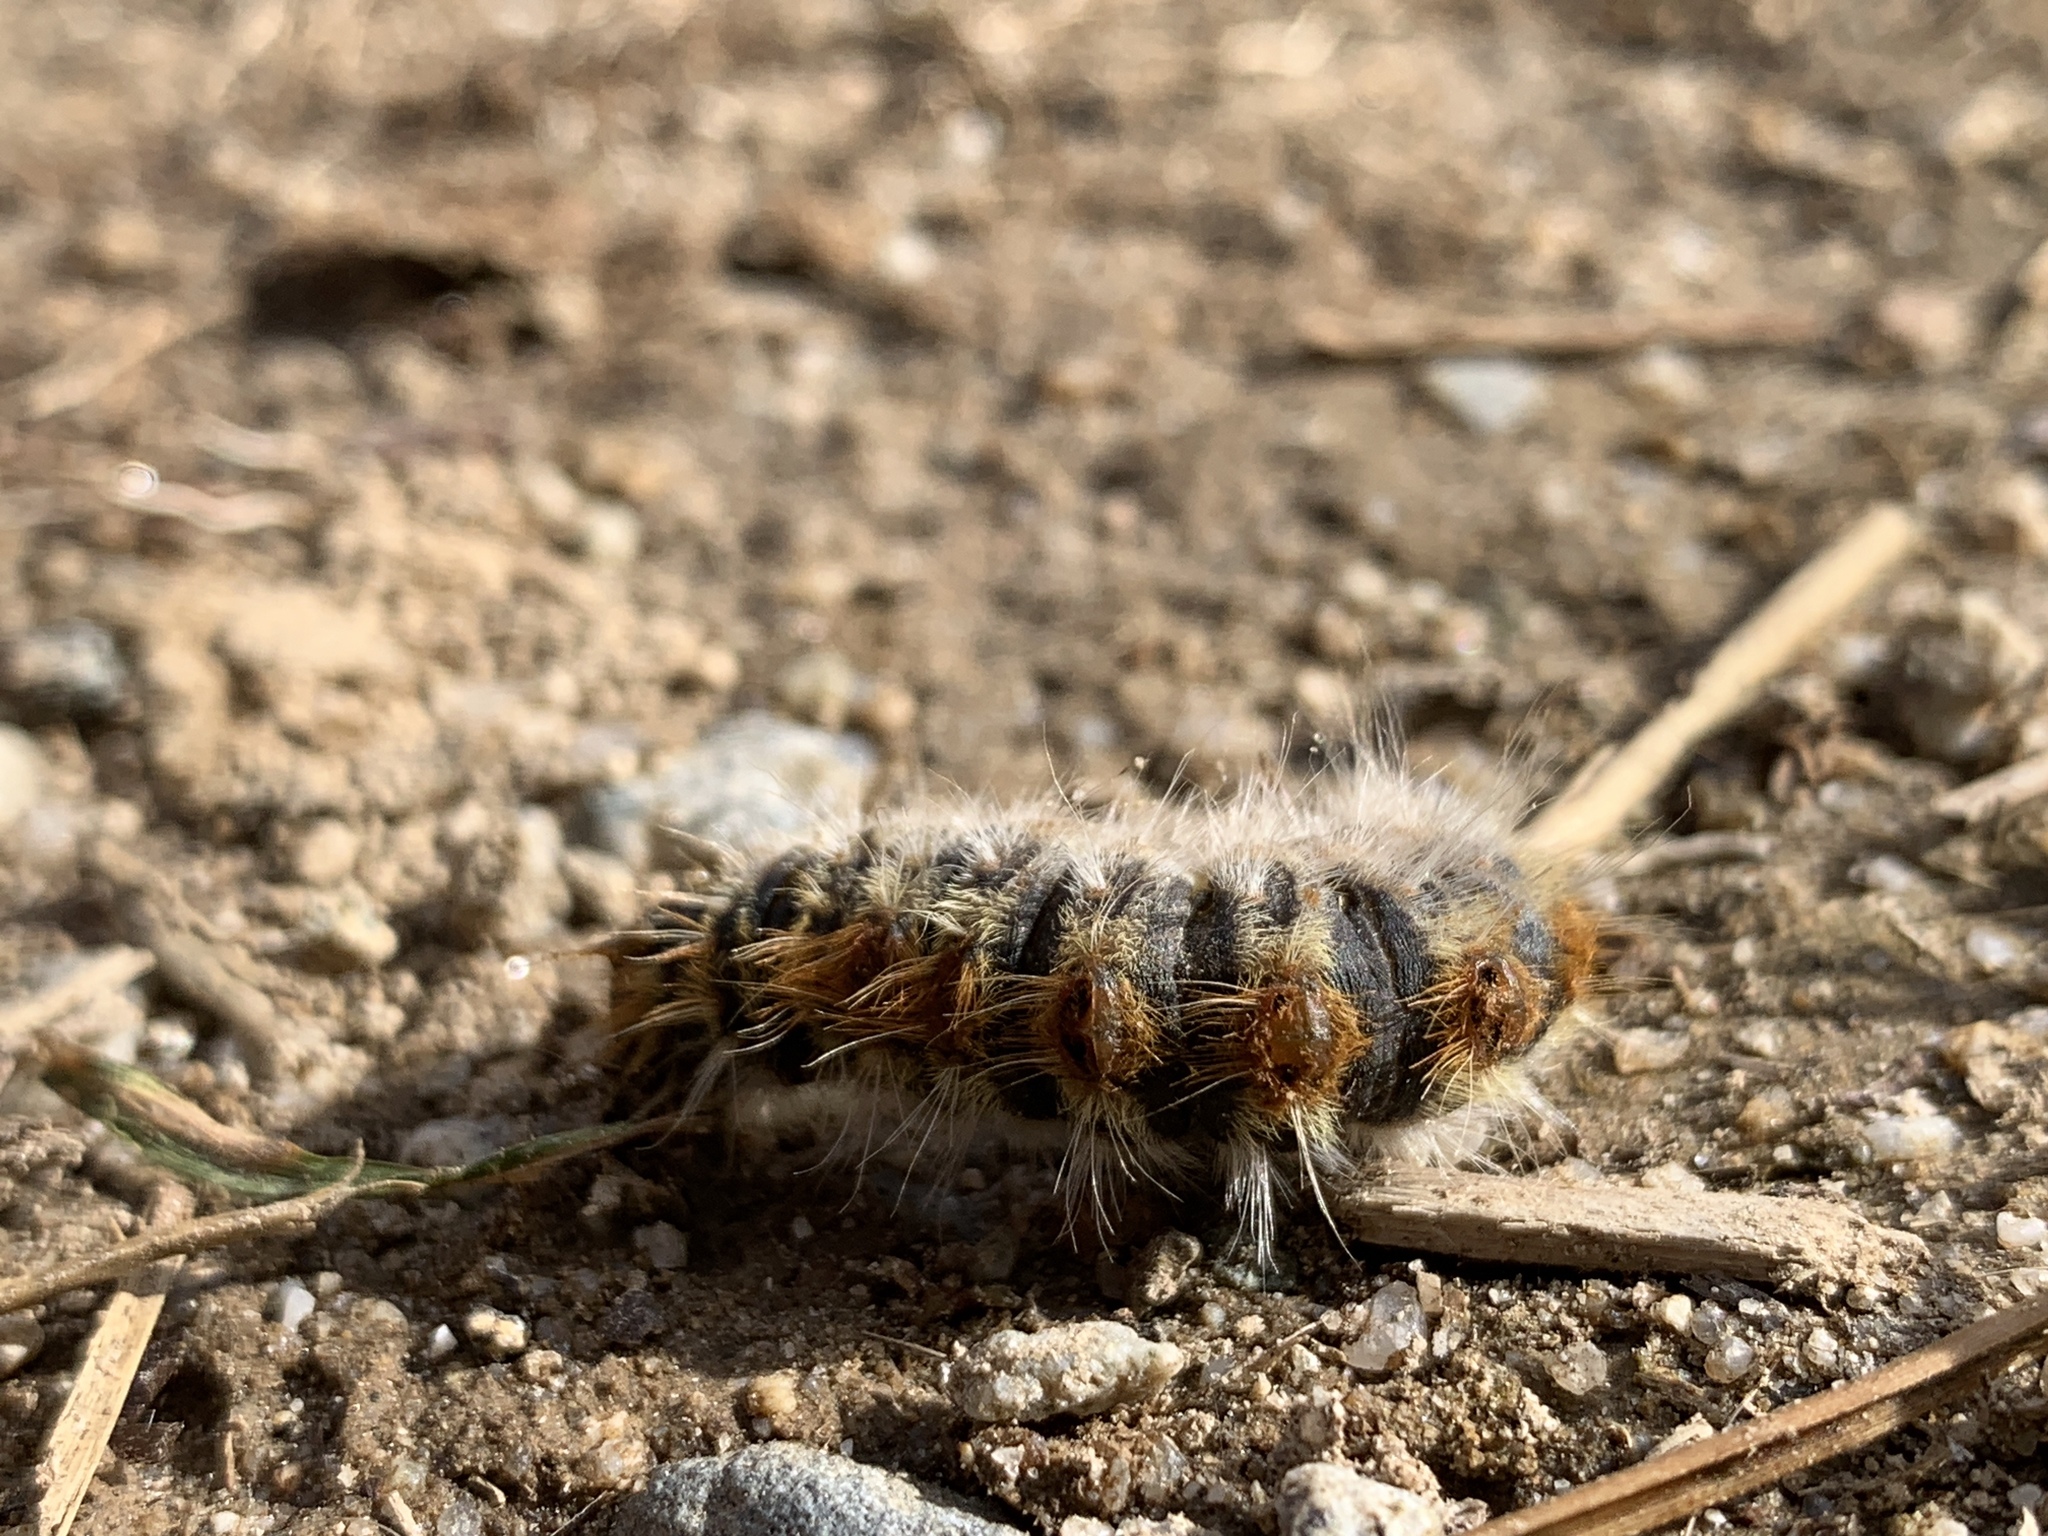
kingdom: Animalia
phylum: Arthropoda
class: Insecta
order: Lepidoptera
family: Notodontidae
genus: Thaumetopoea
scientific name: Thaumetopoea pityocampa
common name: Pine processionary
